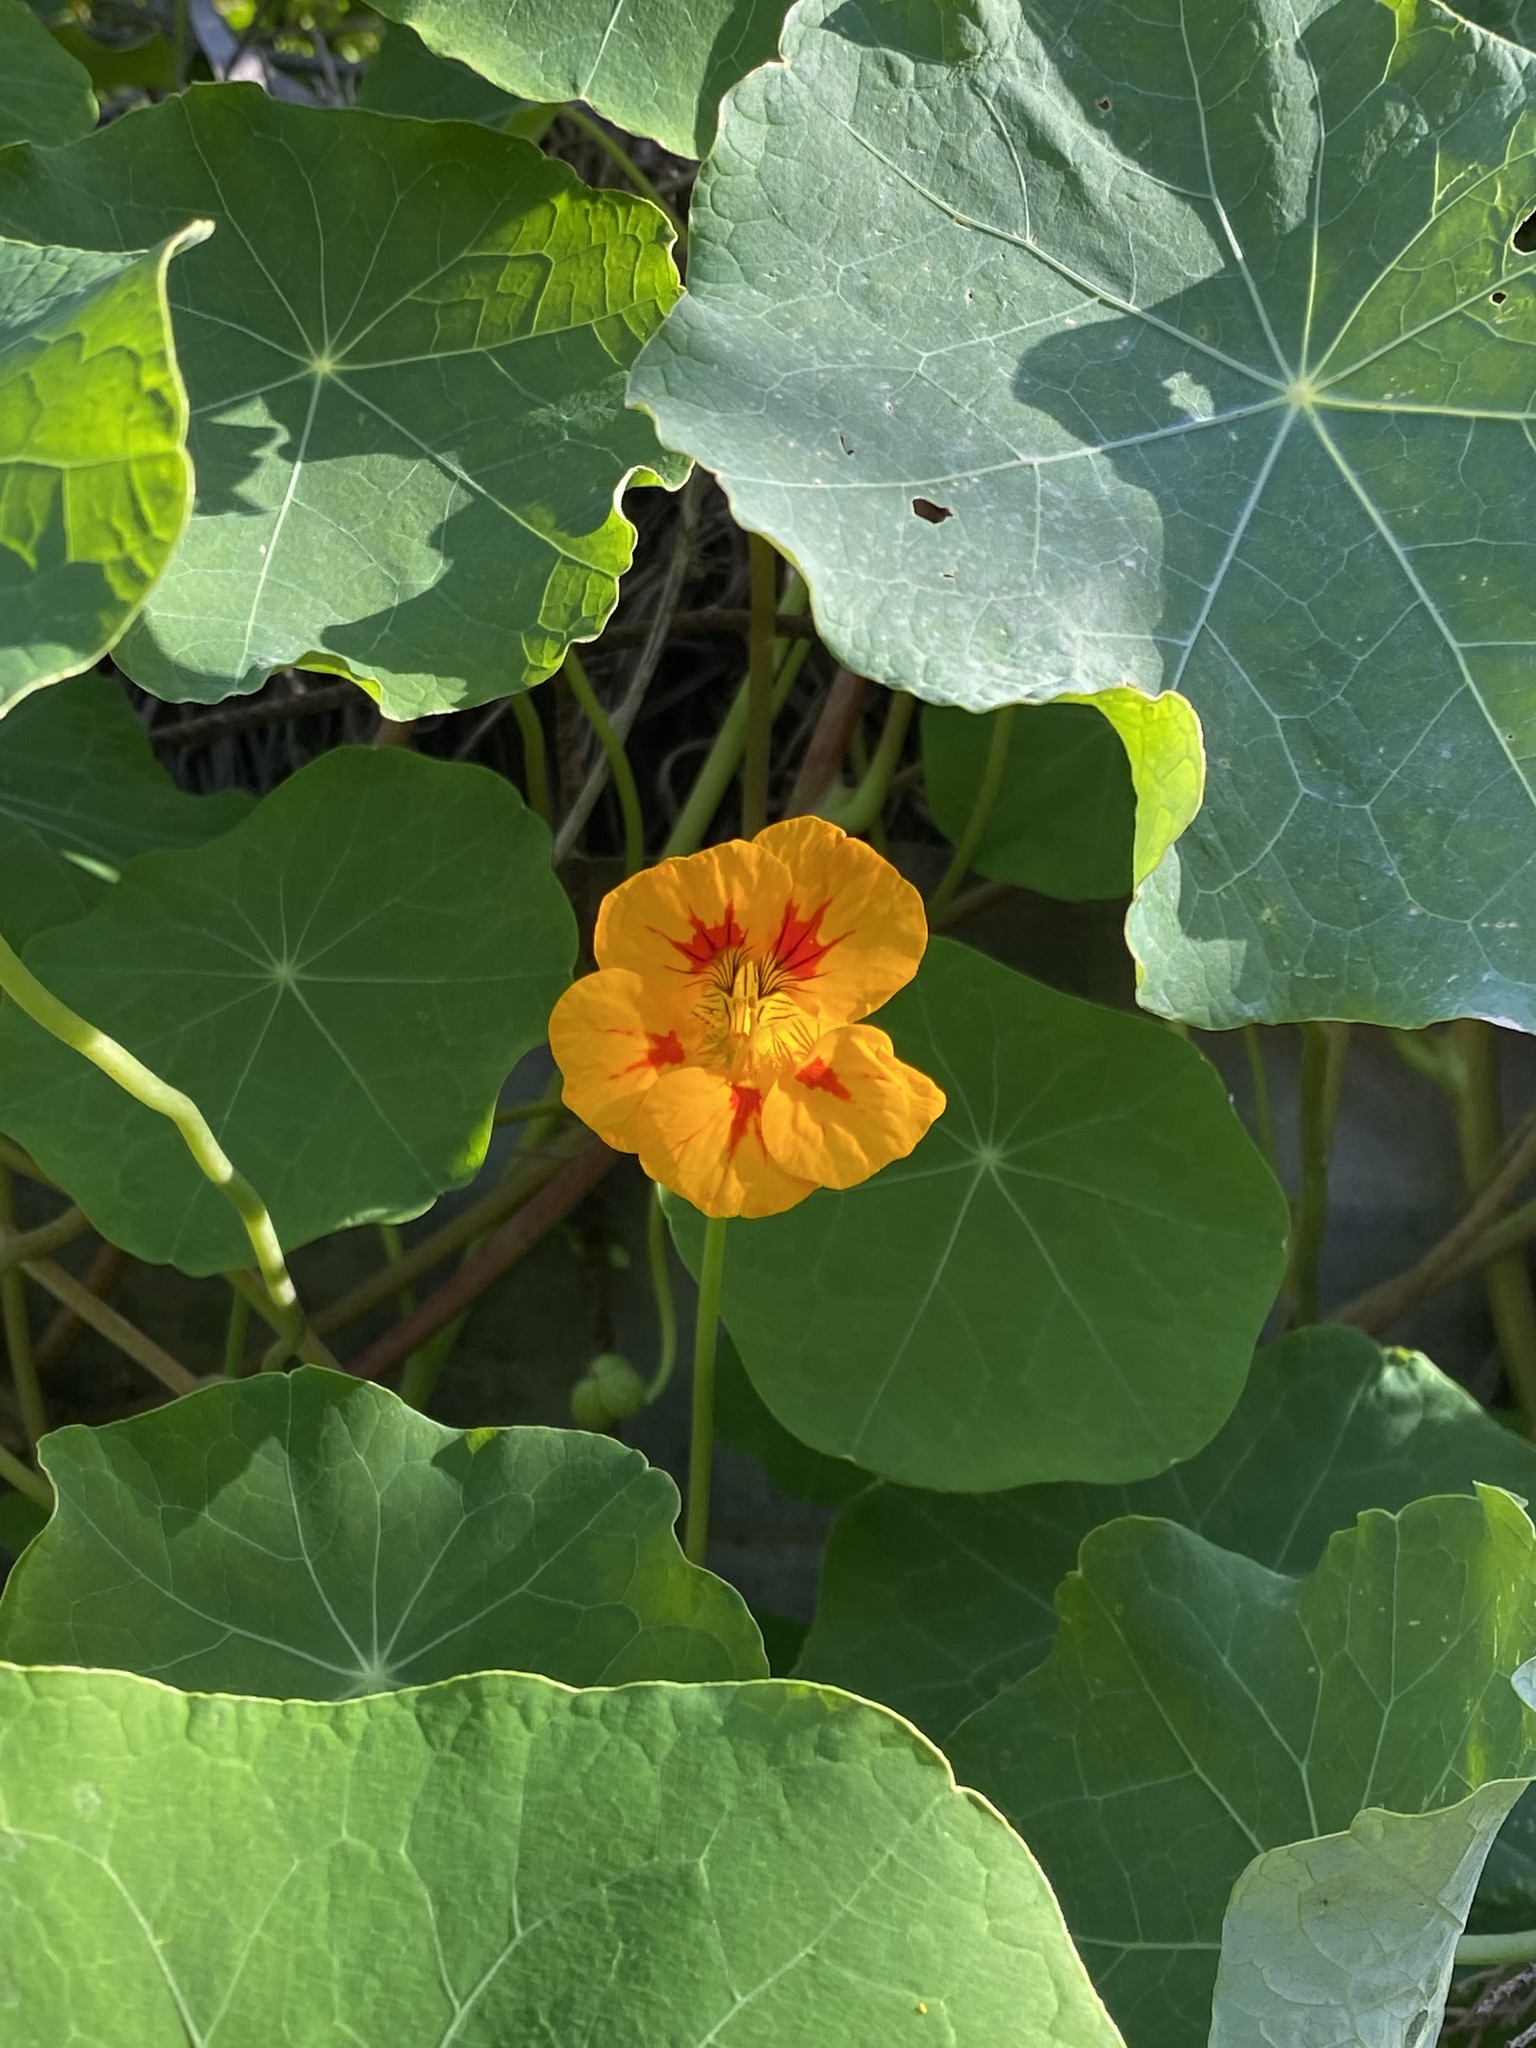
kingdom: Plantae
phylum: Tracheophyta
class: Magnoliopsida
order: Brassicales
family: Tropaeolaceae
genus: Tropaeolum
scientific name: Tropaeolum majus
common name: Nasturtium
